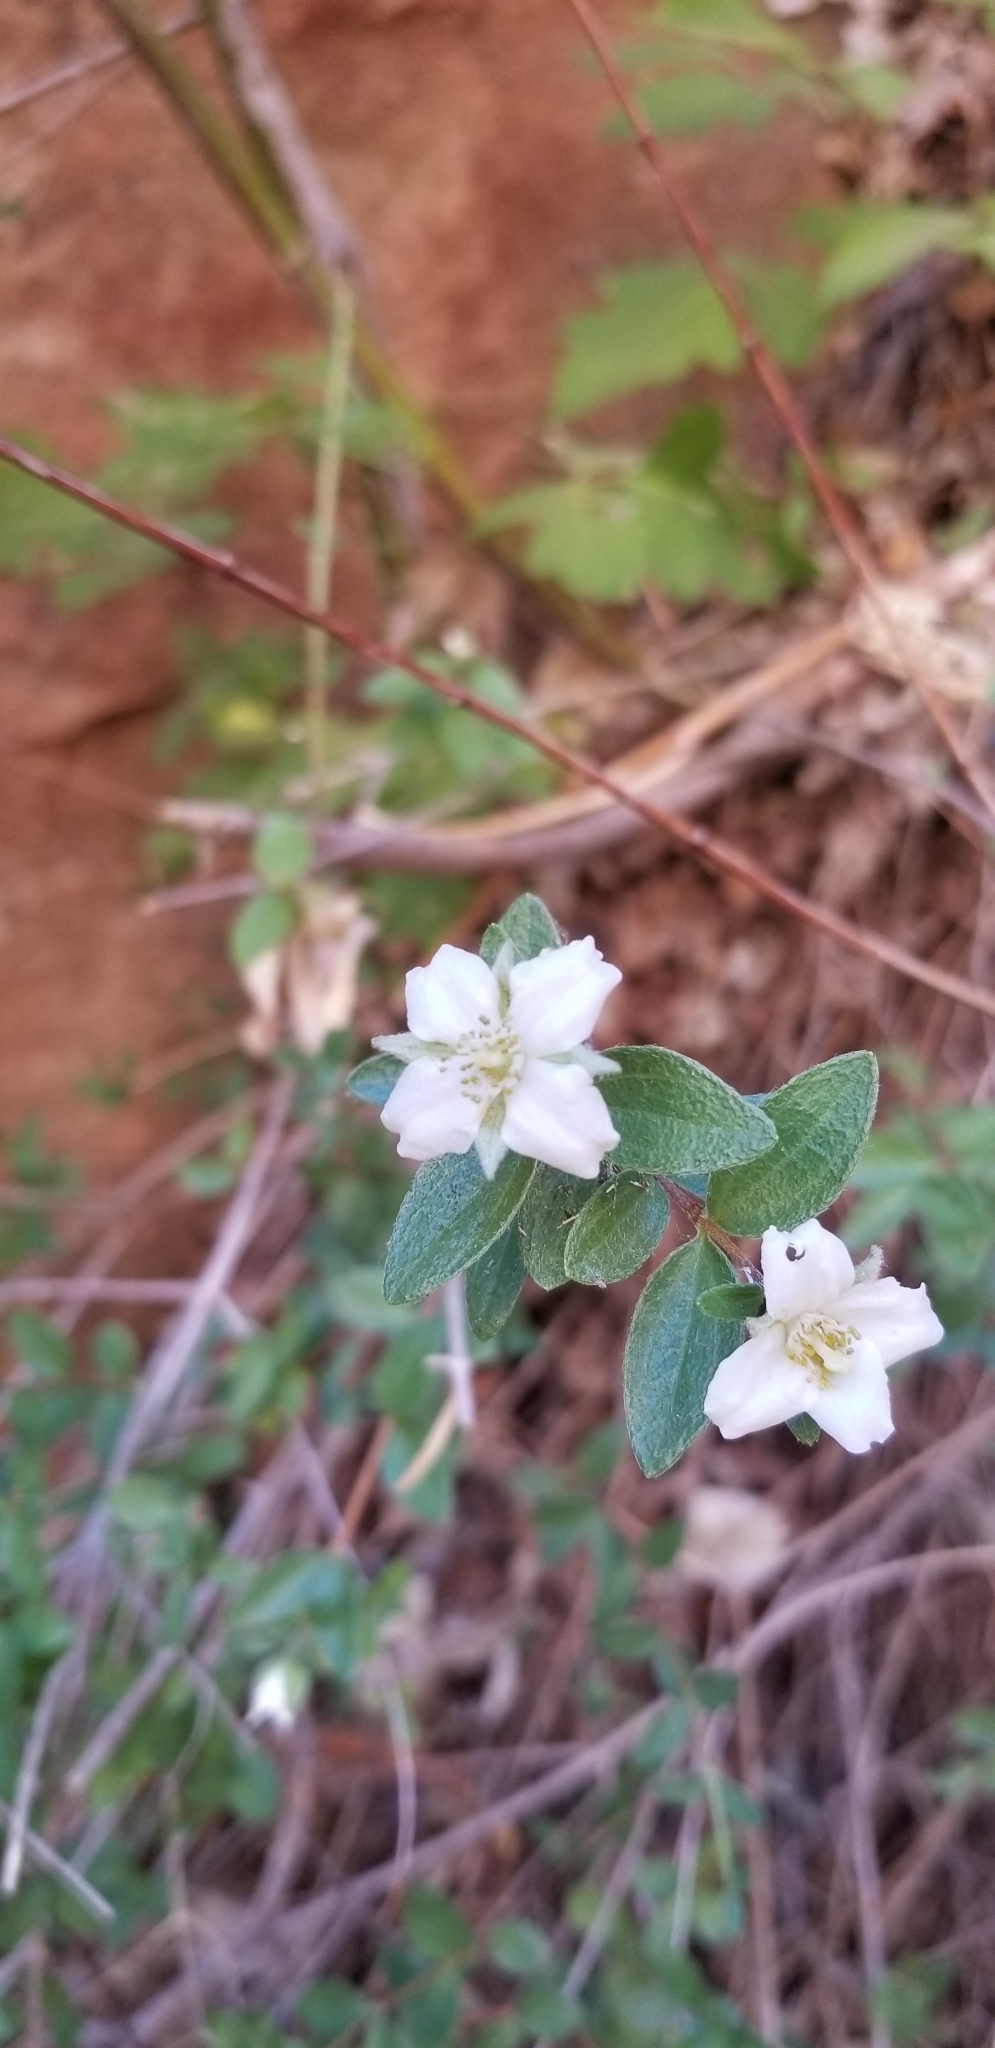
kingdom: Plantae
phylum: Tracheophyta
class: Magnoliopsida
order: Cornales
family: Hydrangeaceae
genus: Philadelphus
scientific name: Philadelphus microphyllus
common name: Desert mock orange
